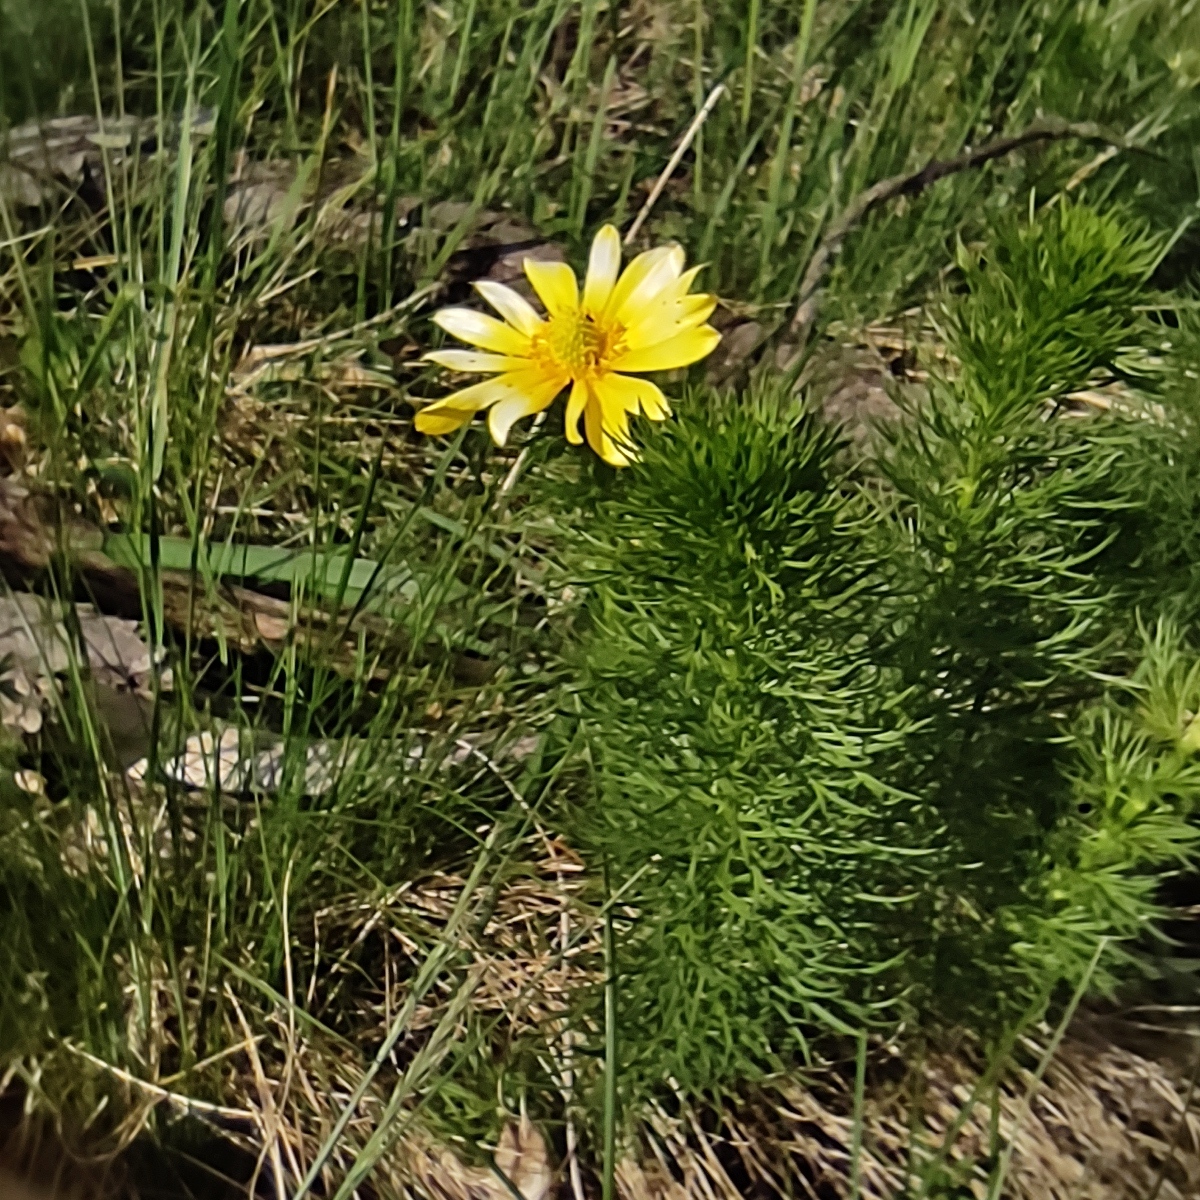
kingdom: Plantae
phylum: Tracheophyta
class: Magnoliopsida
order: Ranunculales
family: Ranunculaceae
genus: Adonis
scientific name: Adonis vernalis
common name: Yellow pheasants-eye
